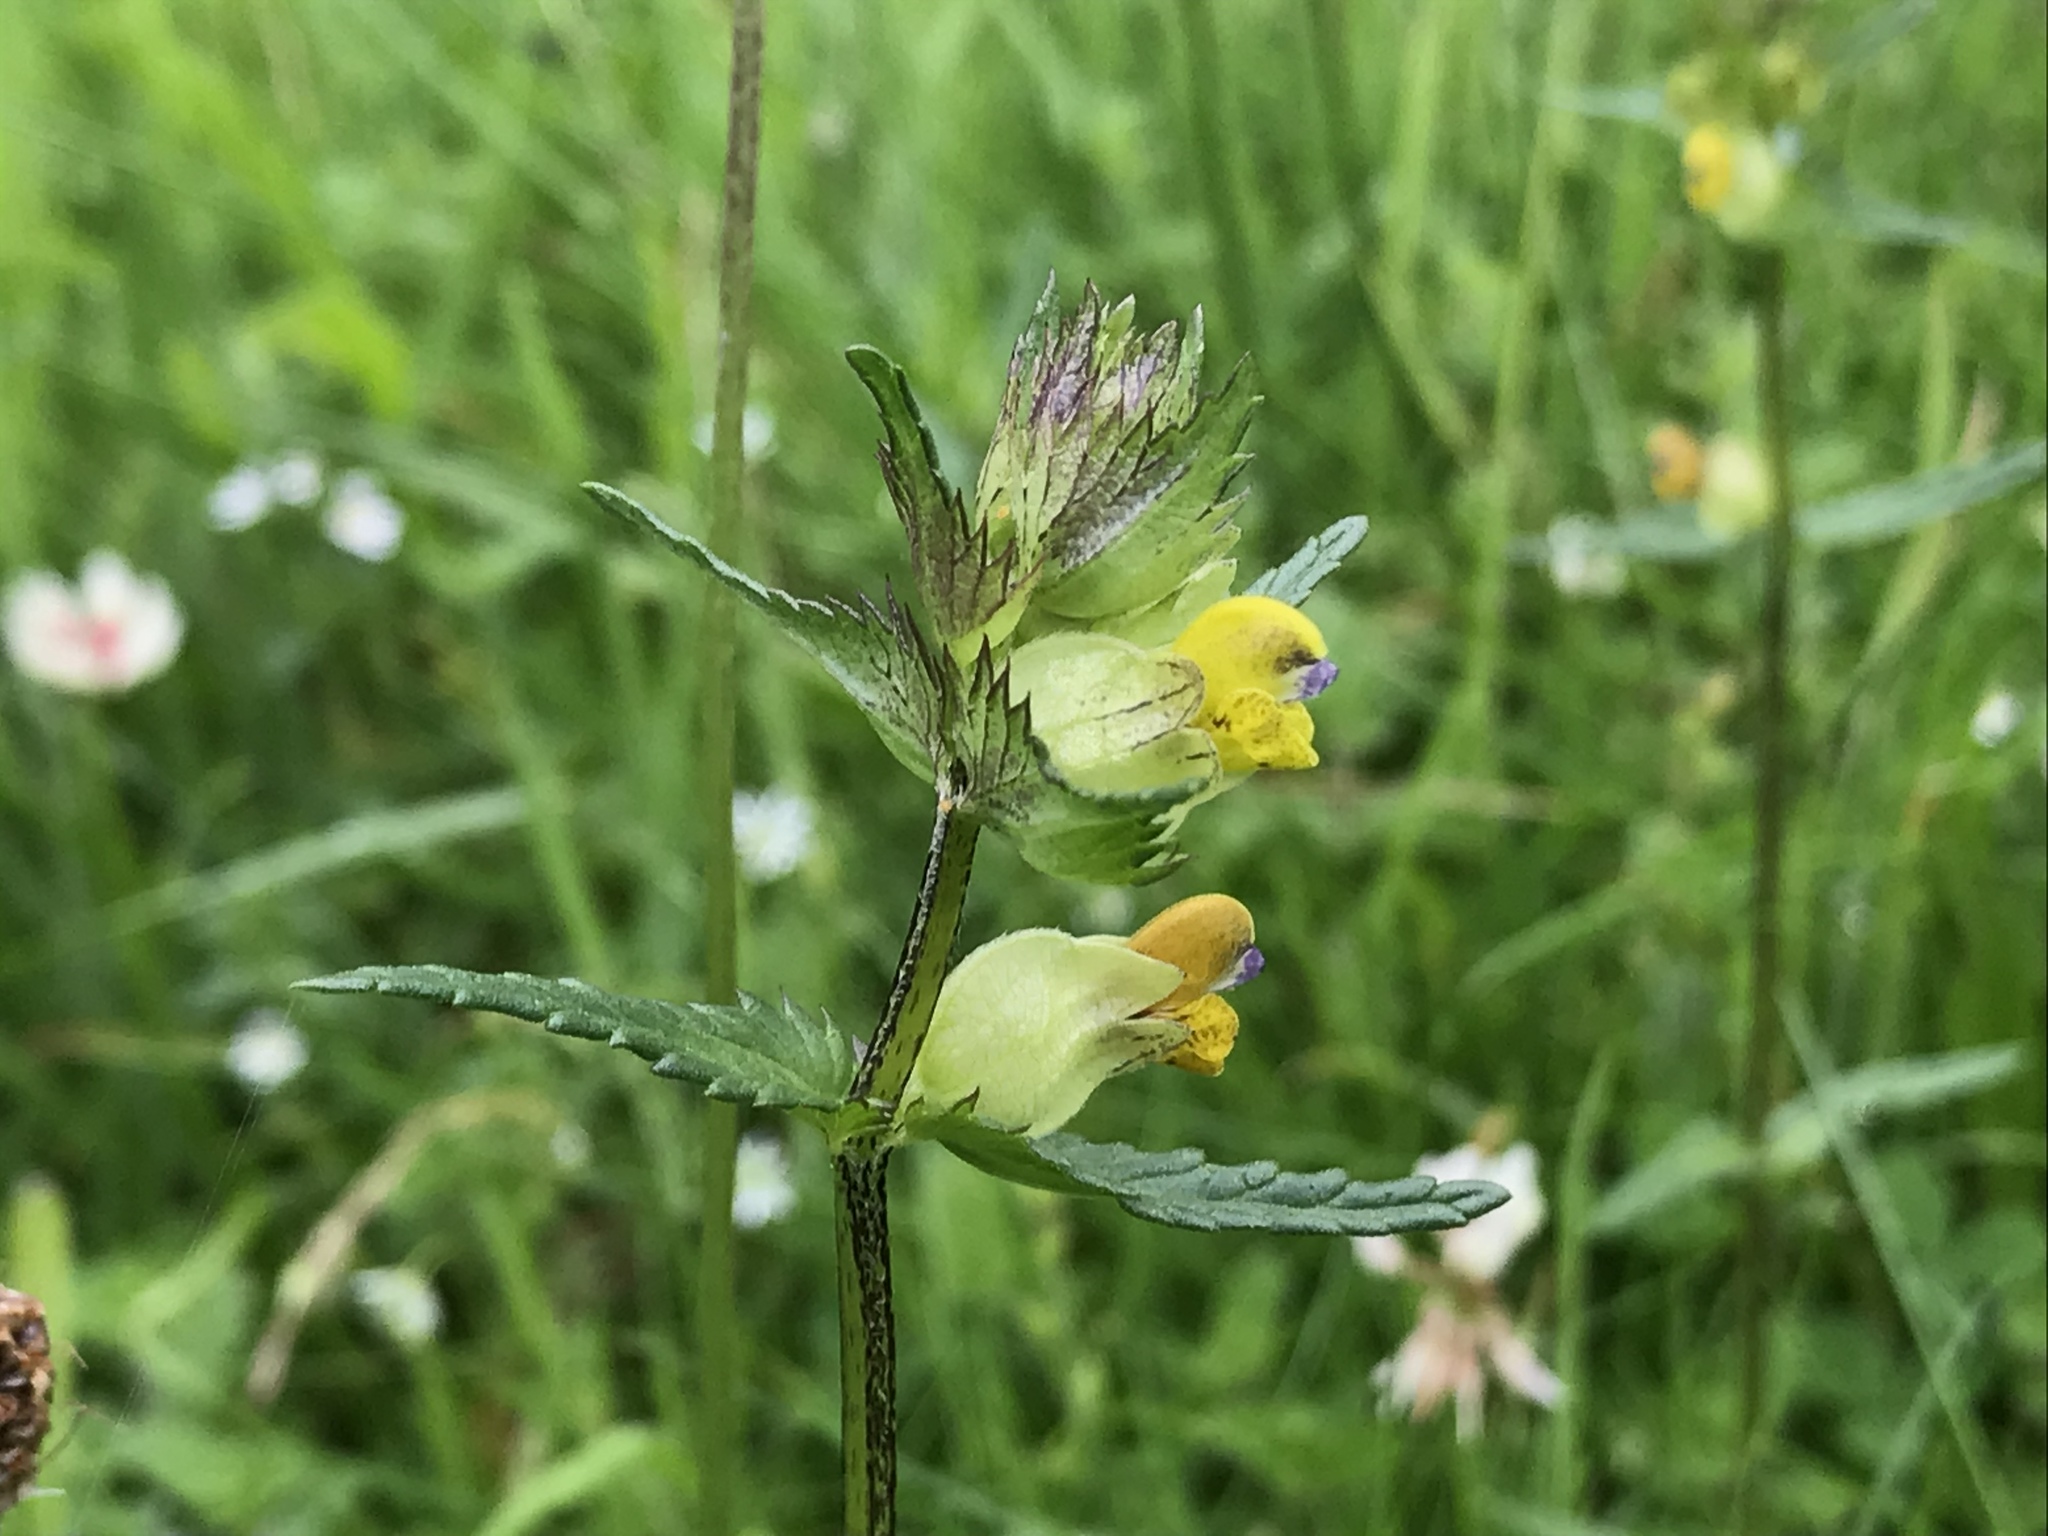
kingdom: Plantae
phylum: Tracheophyta
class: Magnoliopsida
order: Lamiales
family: Orobanchaceae
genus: Rhinanthus
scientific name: Rhinanthus minor
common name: Yellow-rattle
